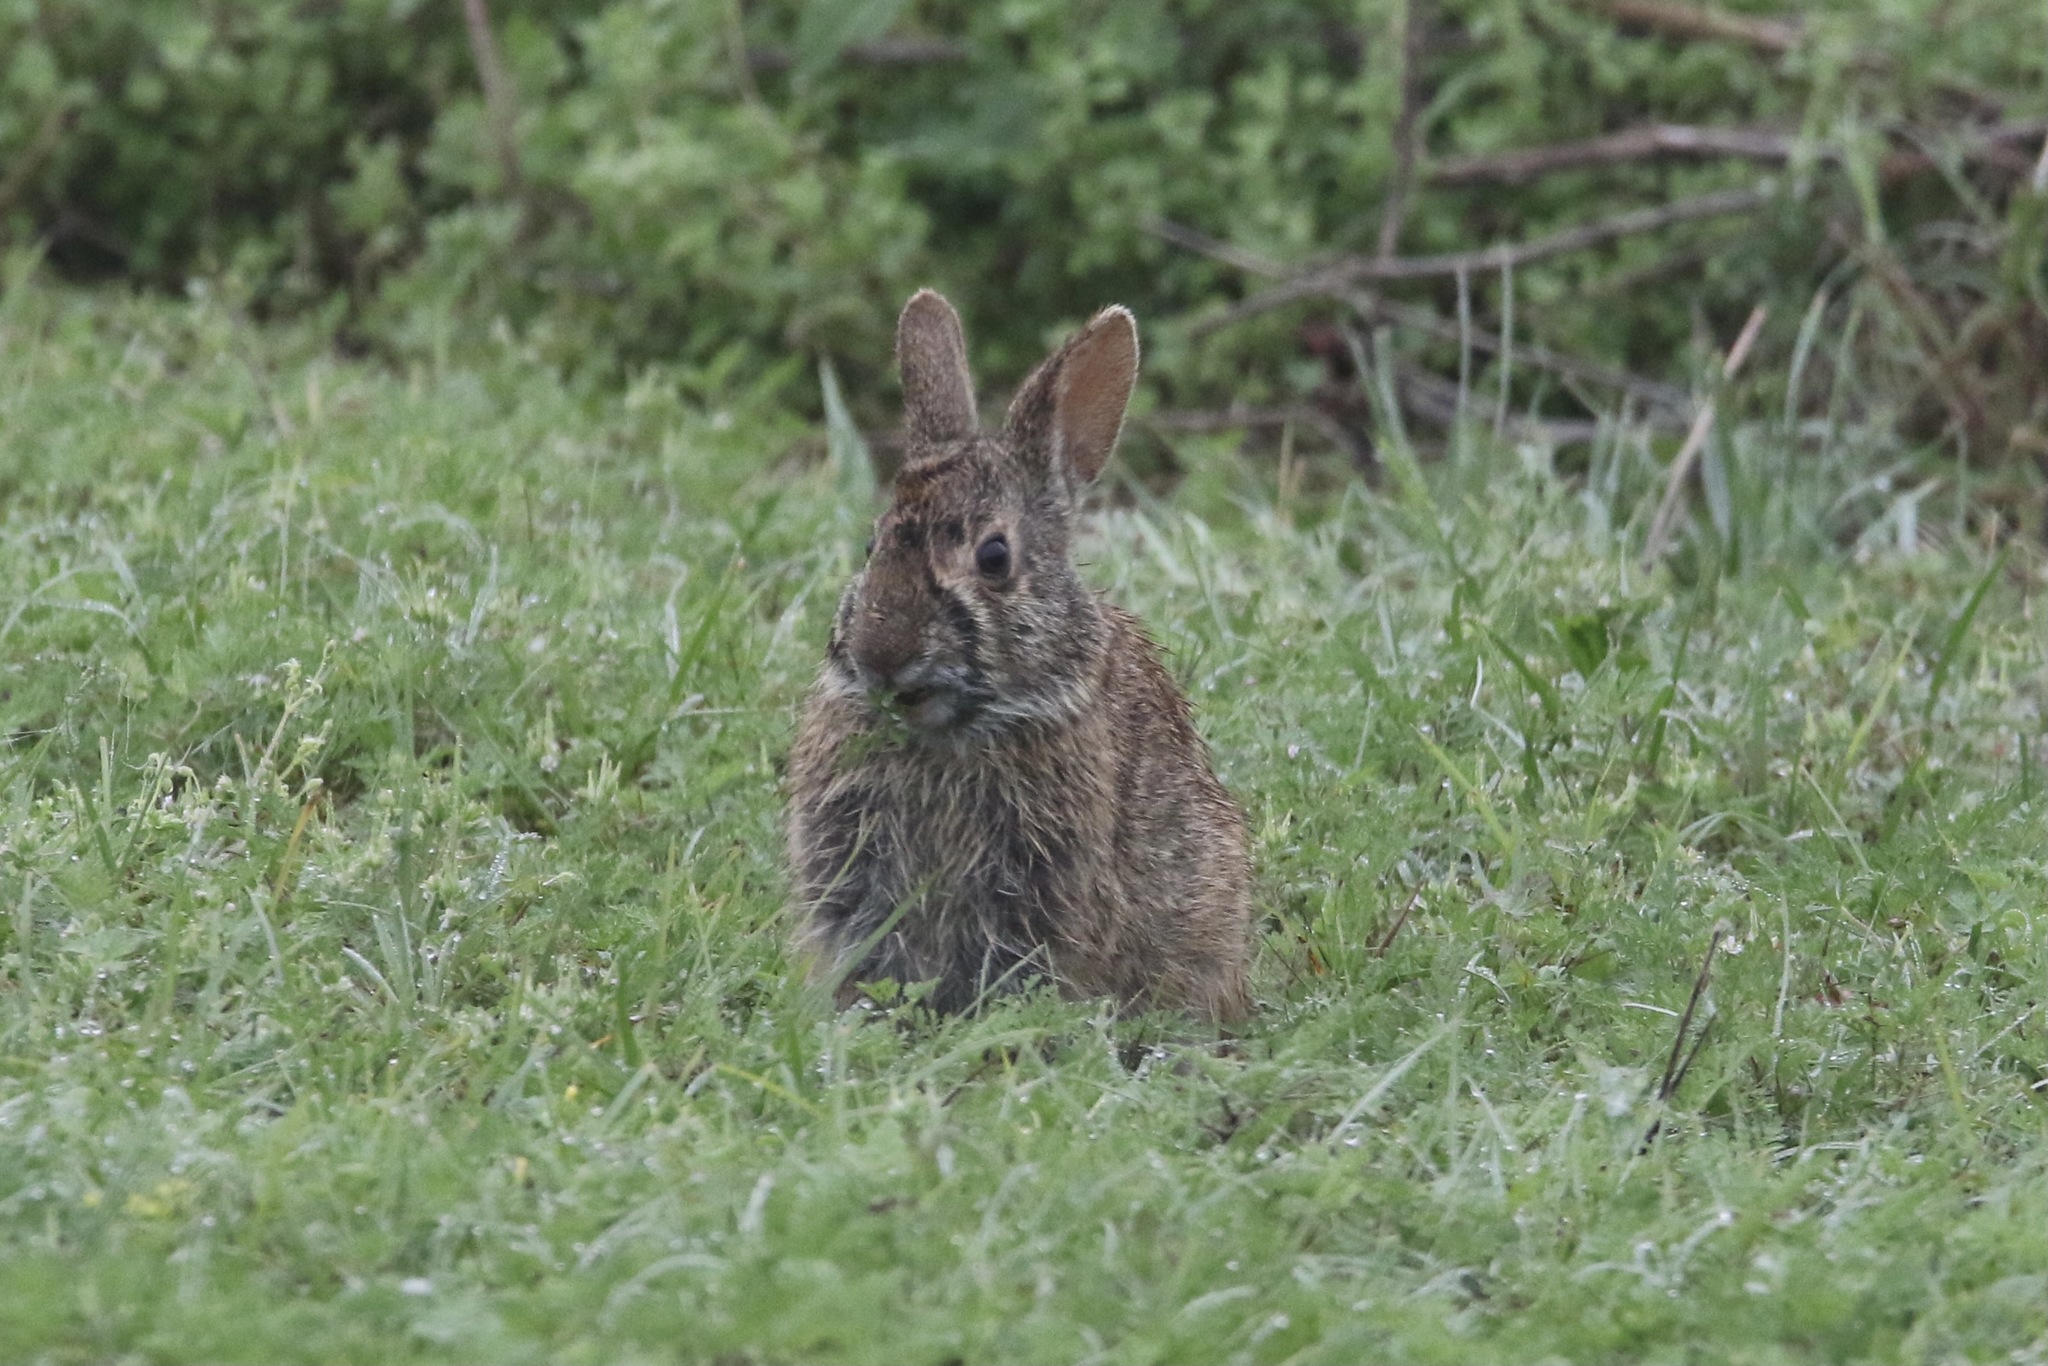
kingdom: Animalia
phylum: Chordata
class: Mammalia
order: Lagomorpha
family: Leporidae
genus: Sylvilagus
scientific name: Sylvilagus palustris
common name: Marsh rabbit
